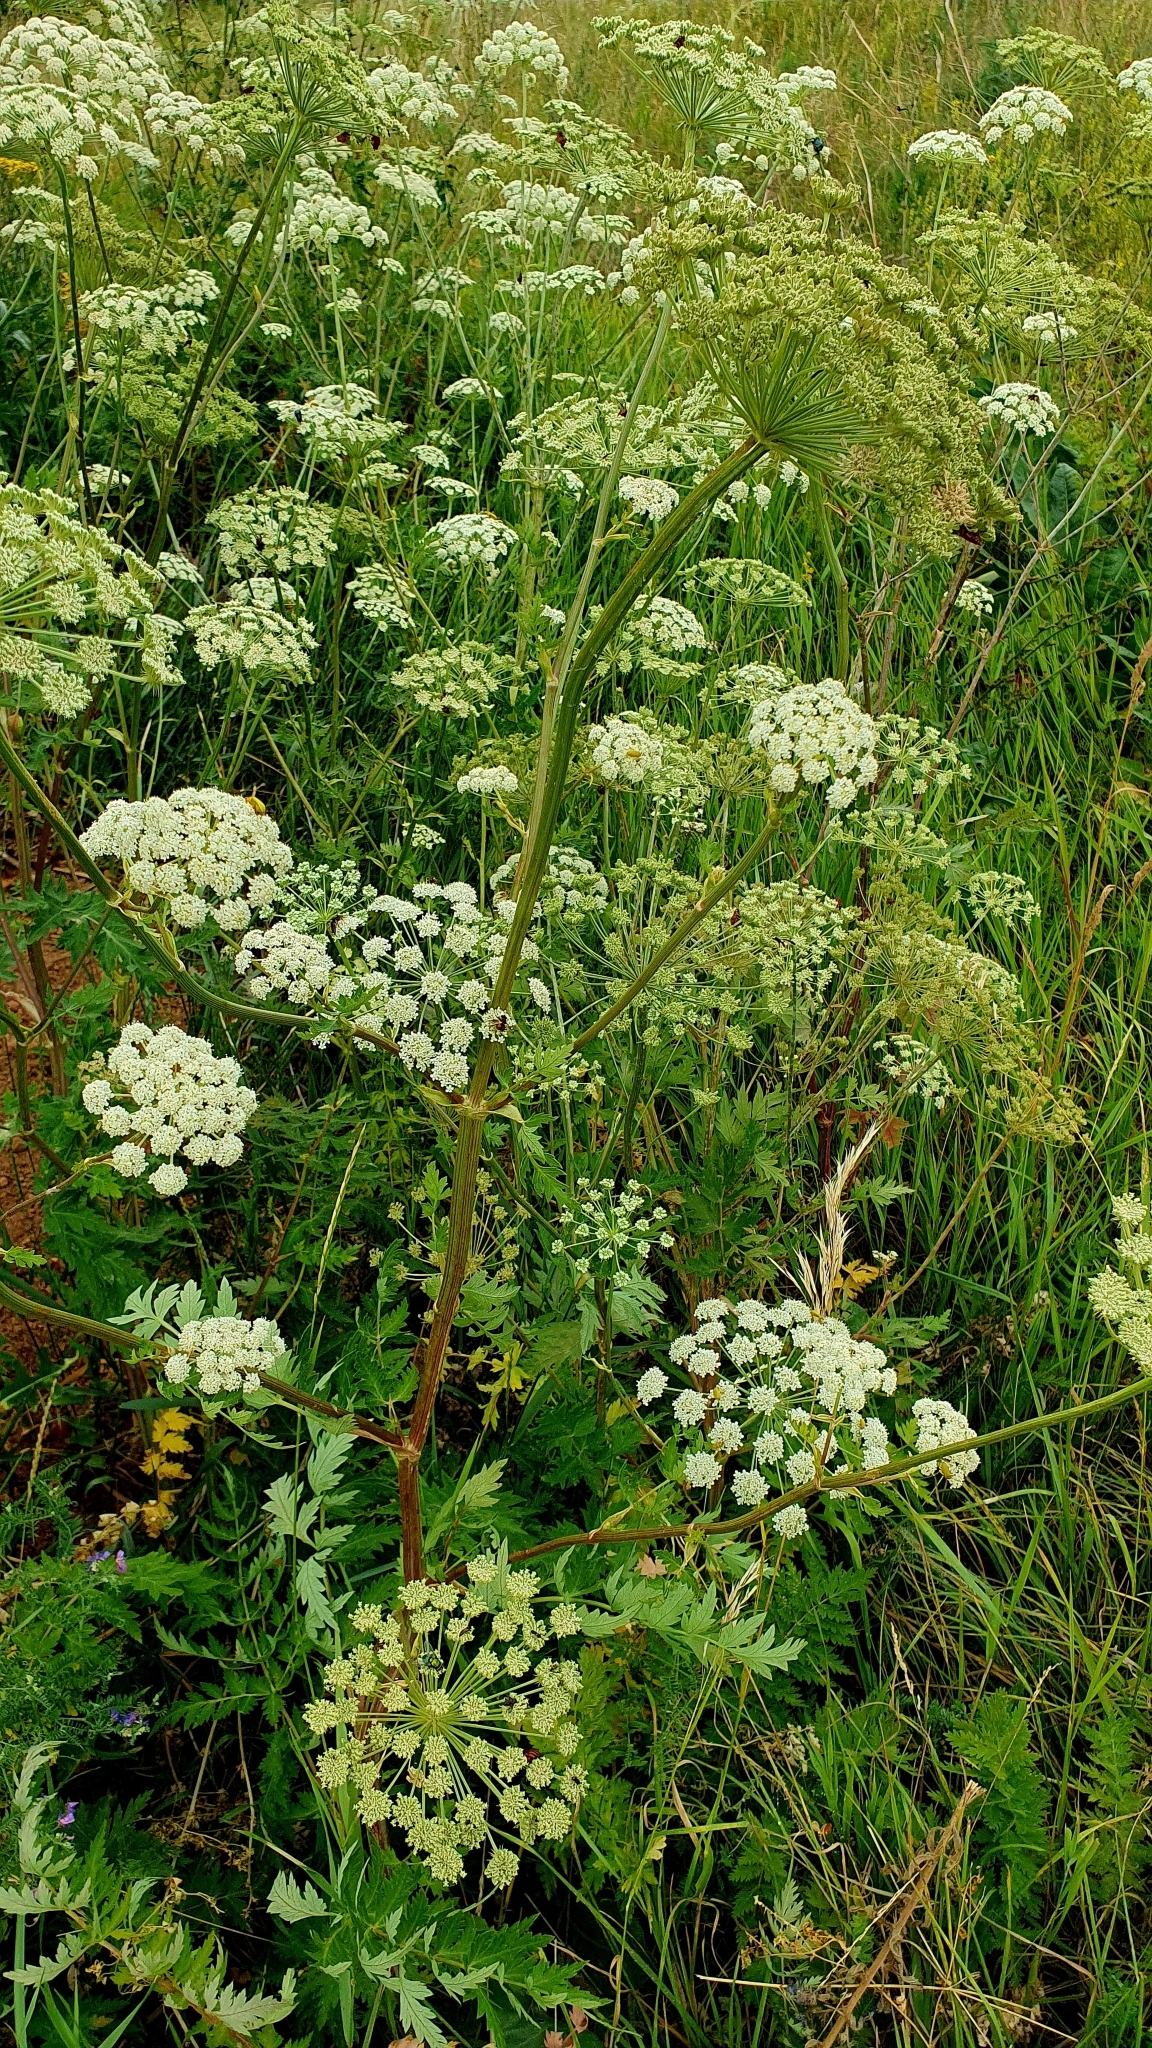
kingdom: Plantae
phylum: Tracheophyta
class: Magnoliopsida
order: Apiales
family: Apiaceae
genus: Seseli
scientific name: Seseli libanotis
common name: Mooncarrot
